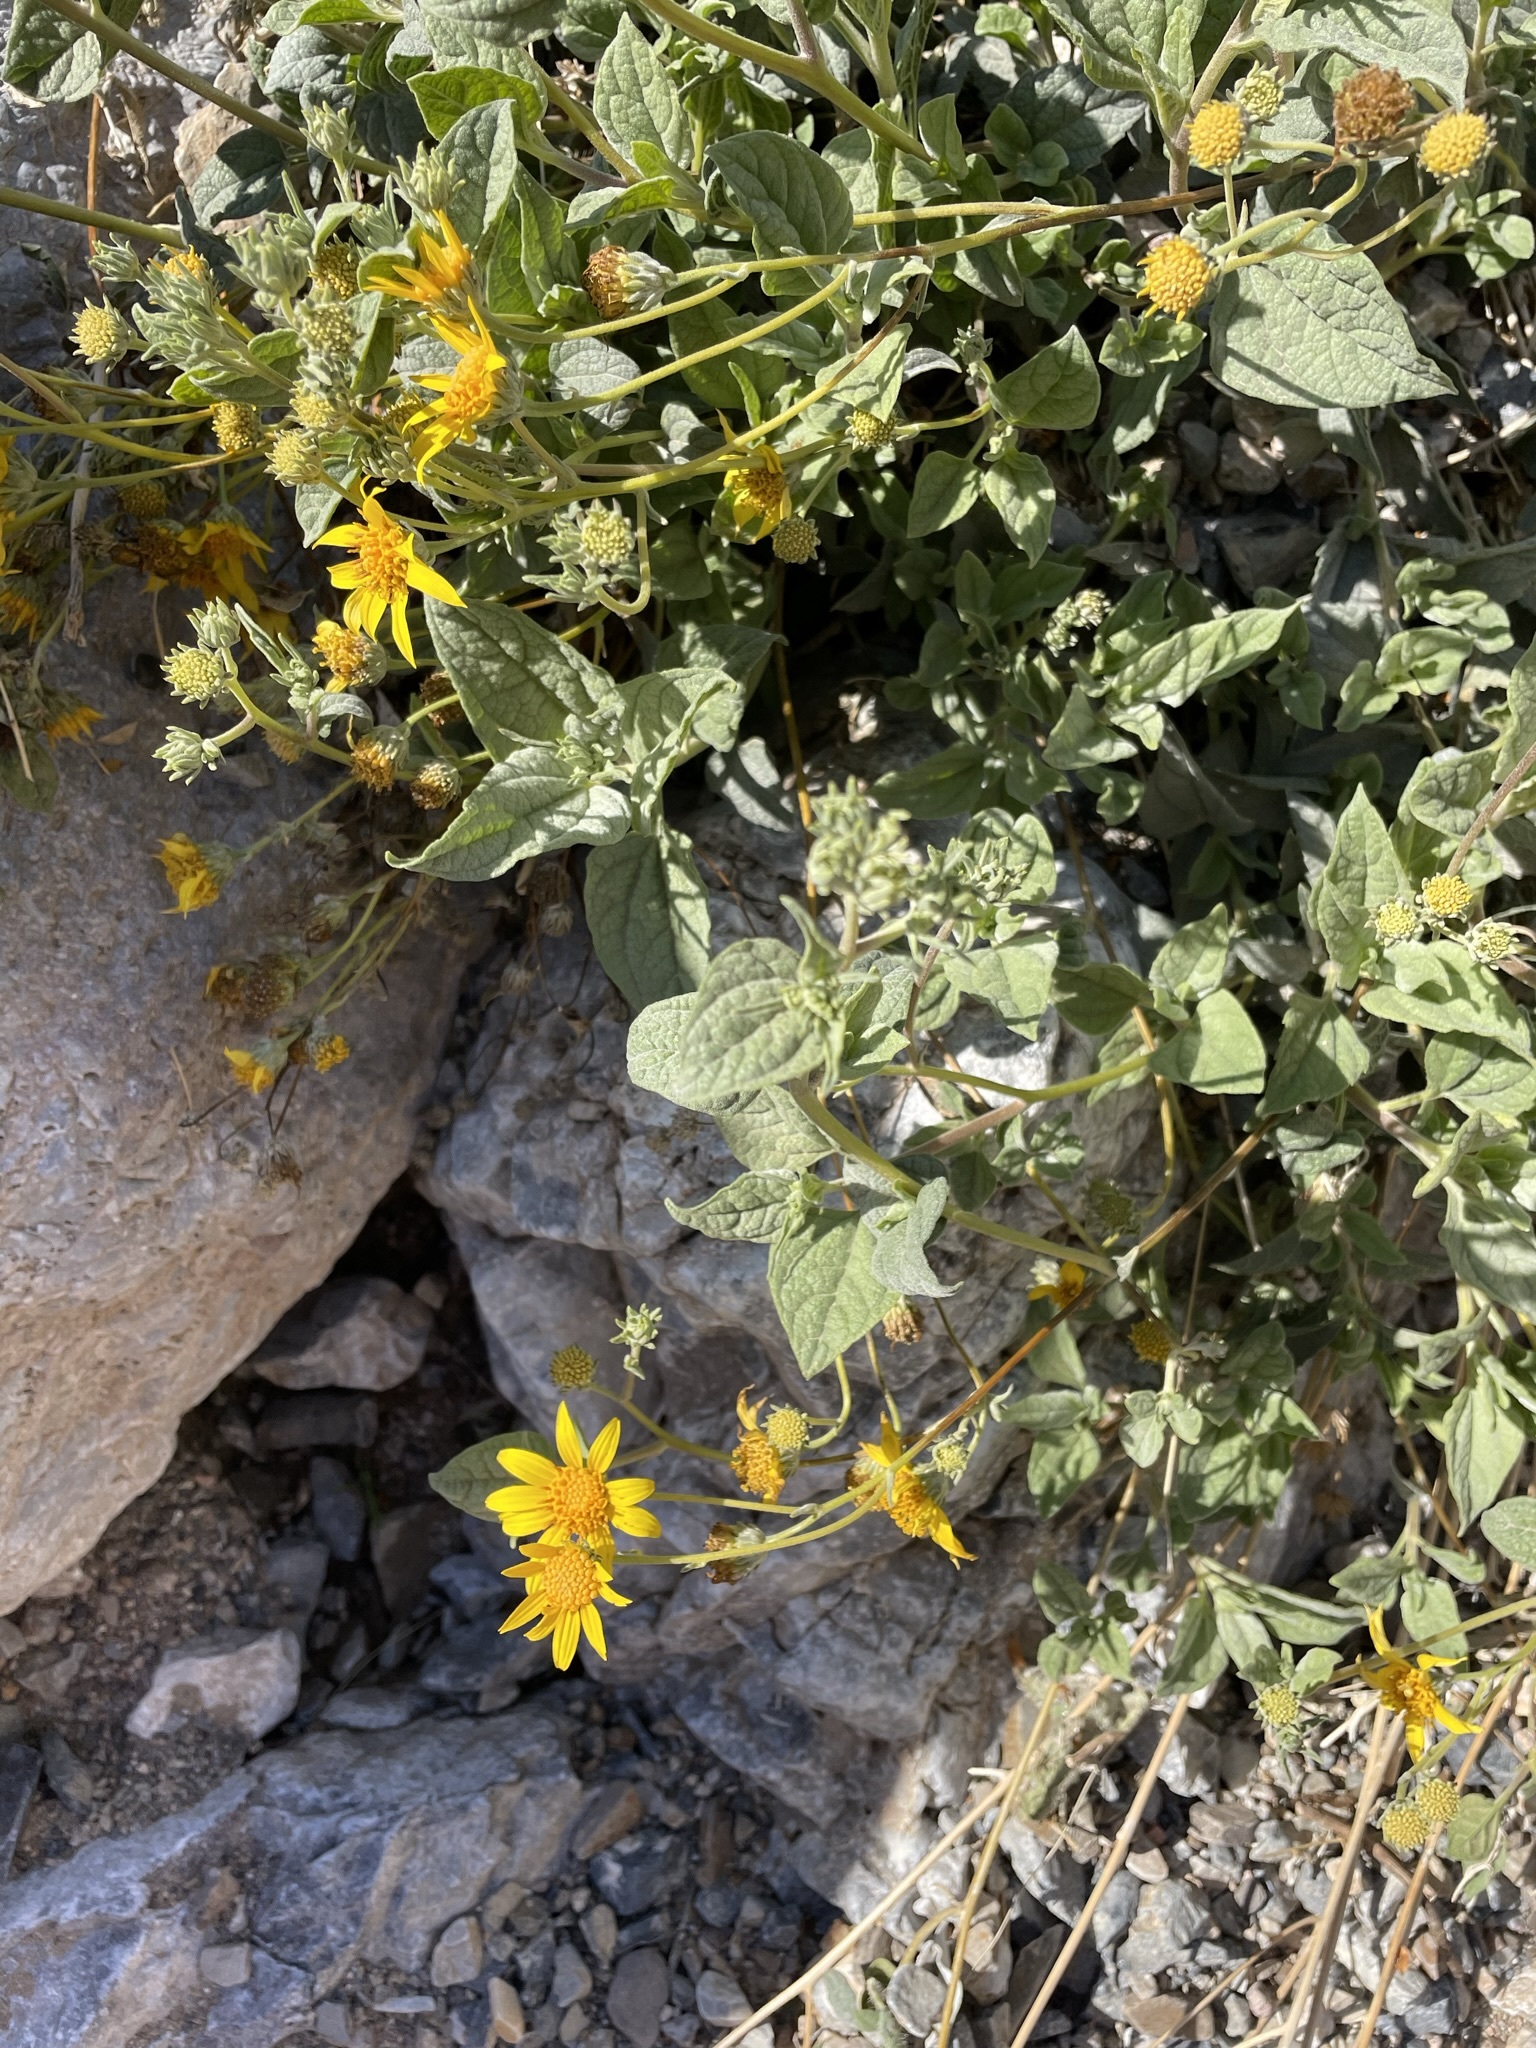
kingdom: Plantae
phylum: Tracheophyta
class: Magnoliopsida
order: Asterales
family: Asteraceae
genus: Bahiopsis
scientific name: Bahiopsis reticulata
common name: Death valley goldeneye
